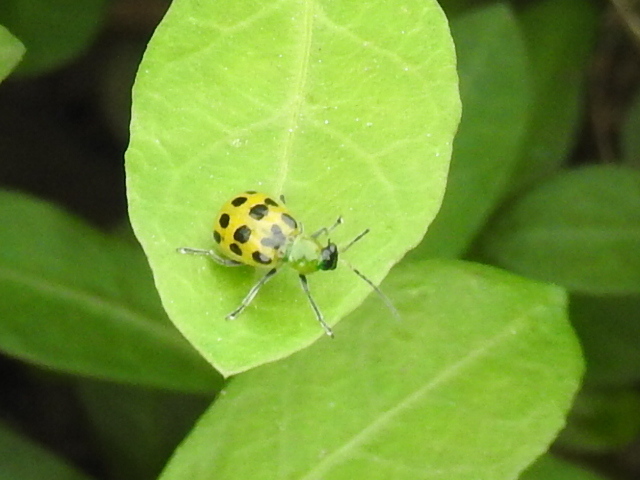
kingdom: Animalia
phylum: Arthropoda
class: Insecta
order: Coleoptera
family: Chrysomelidae
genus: Diabrotica
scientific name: Diabrotica undecimpunctata
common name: Spotted cucumber beetle
